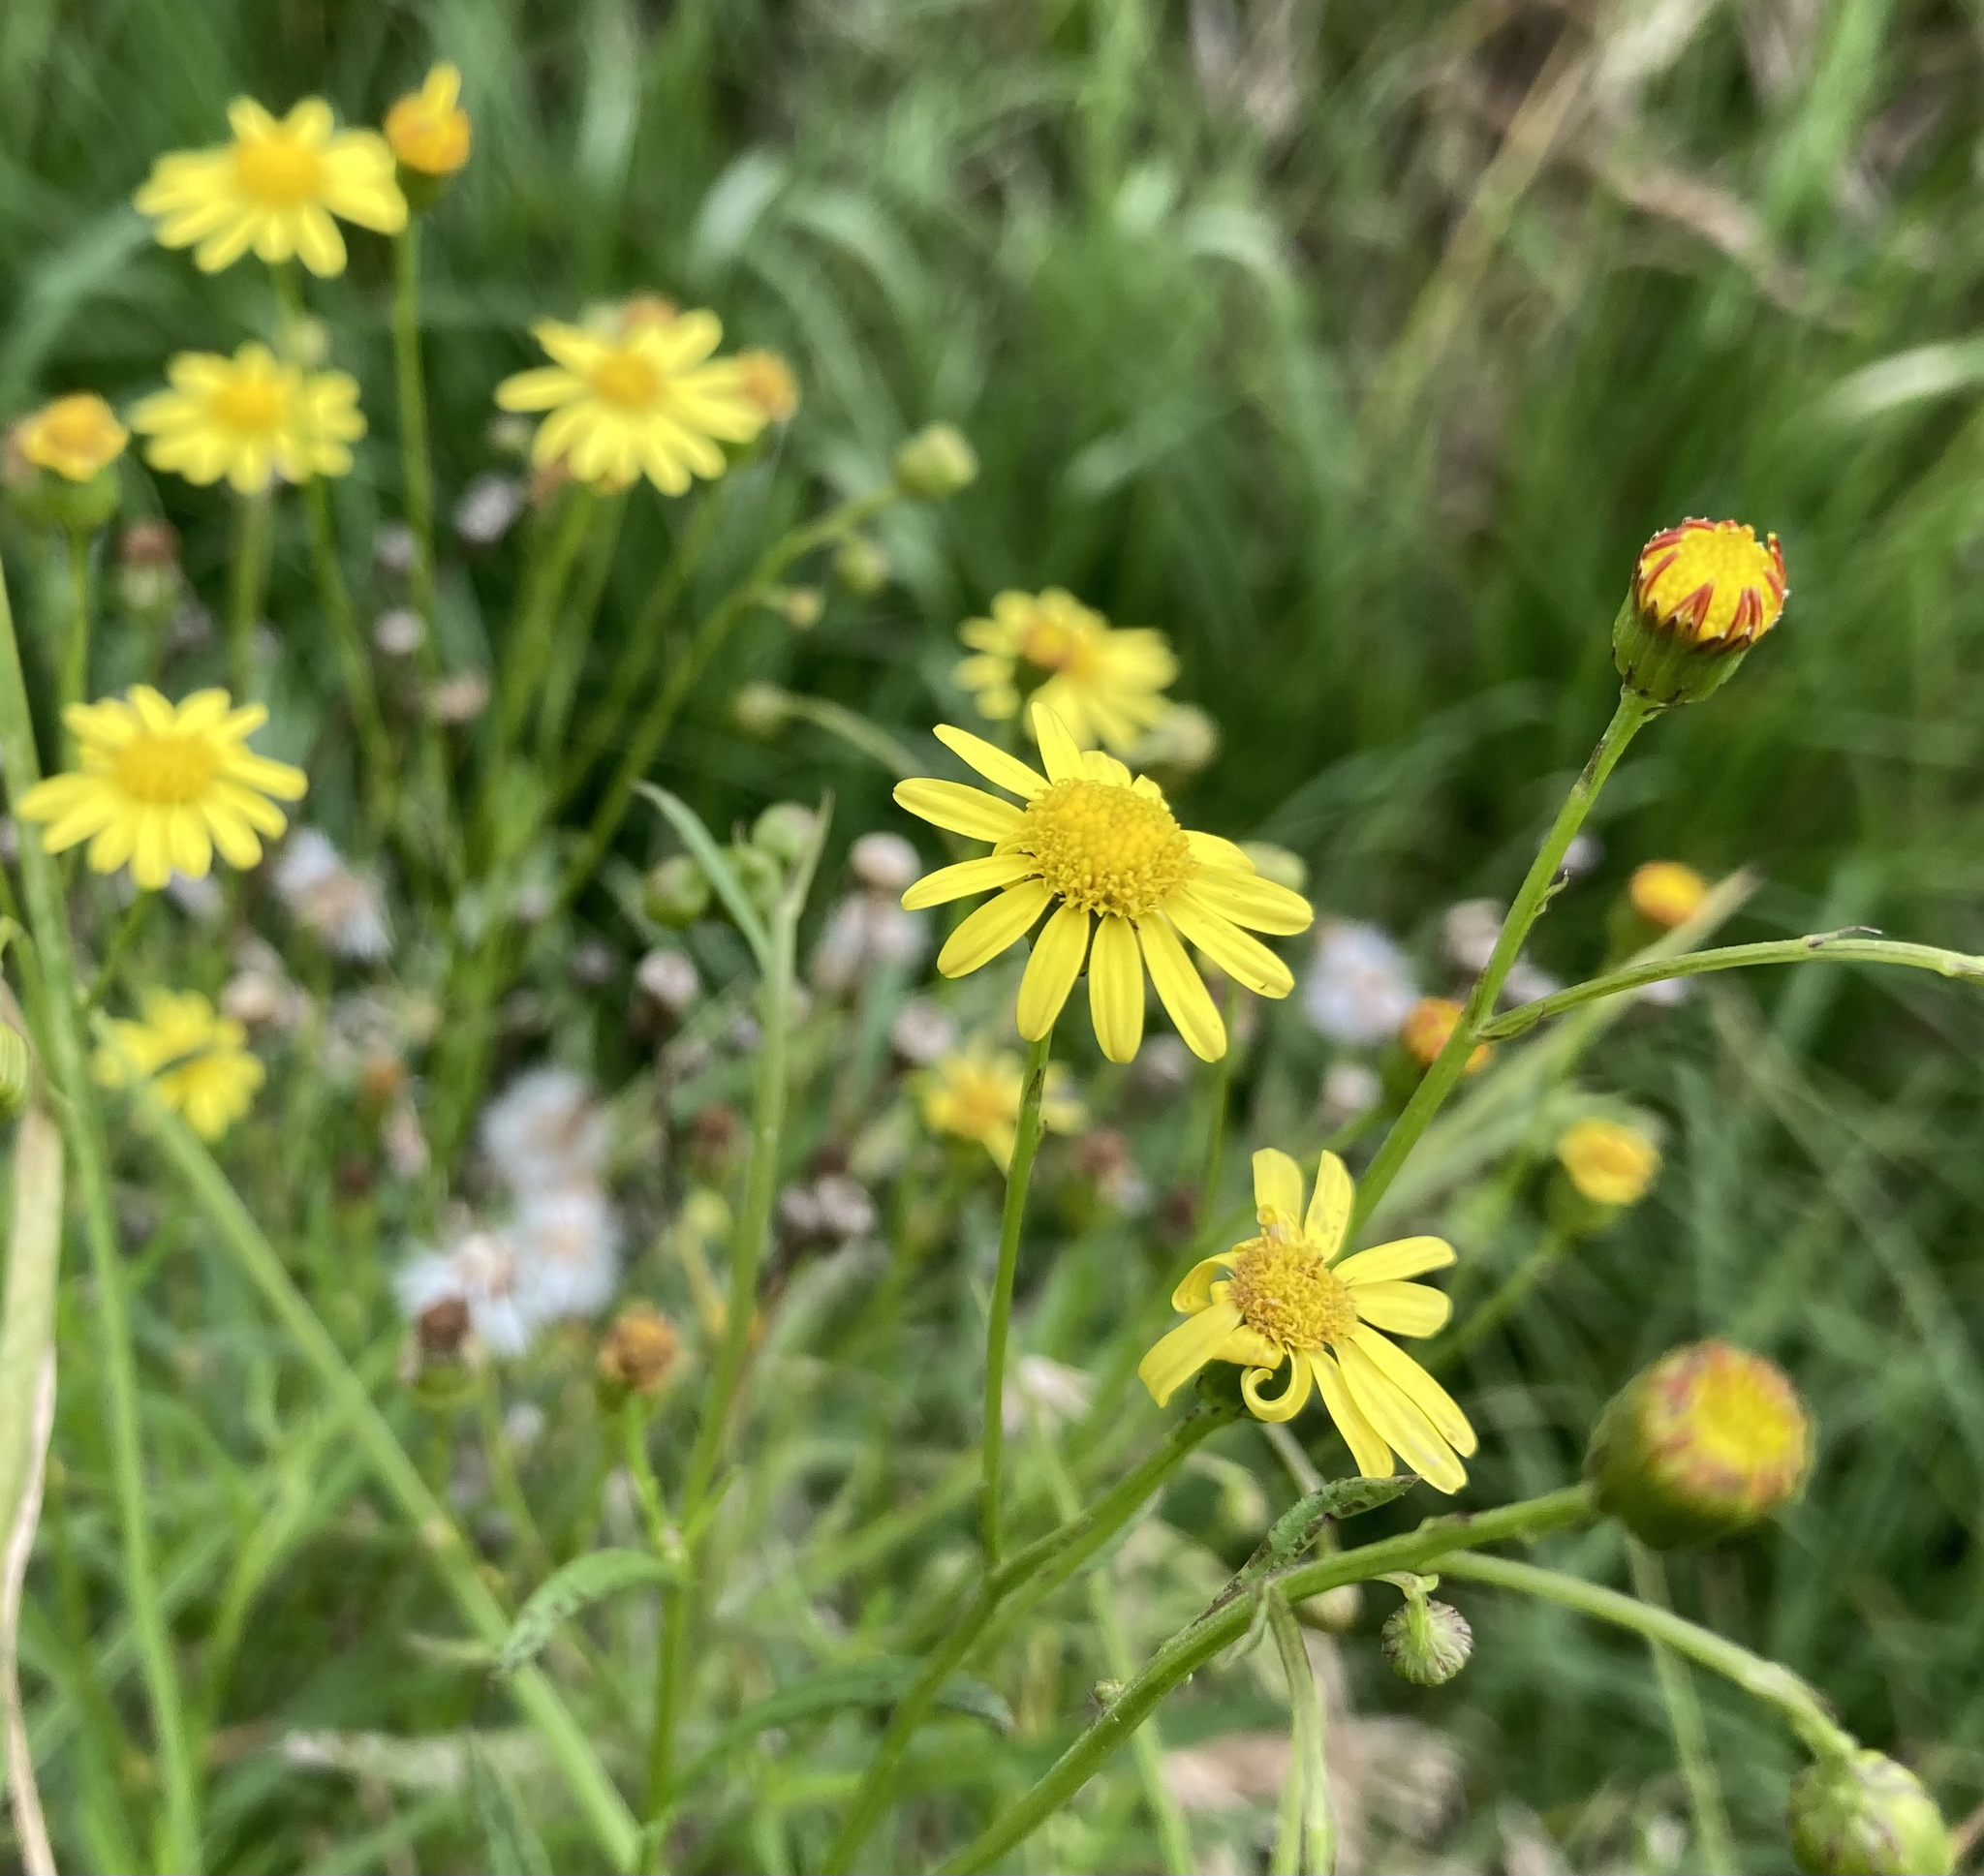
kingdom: Plantae
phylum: Tracheophyta
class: Magnoliopsida
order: Asterales
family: Asteraceae
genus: Senecio
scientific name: Senecio madagascariensis
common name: Madagascar ragwort
